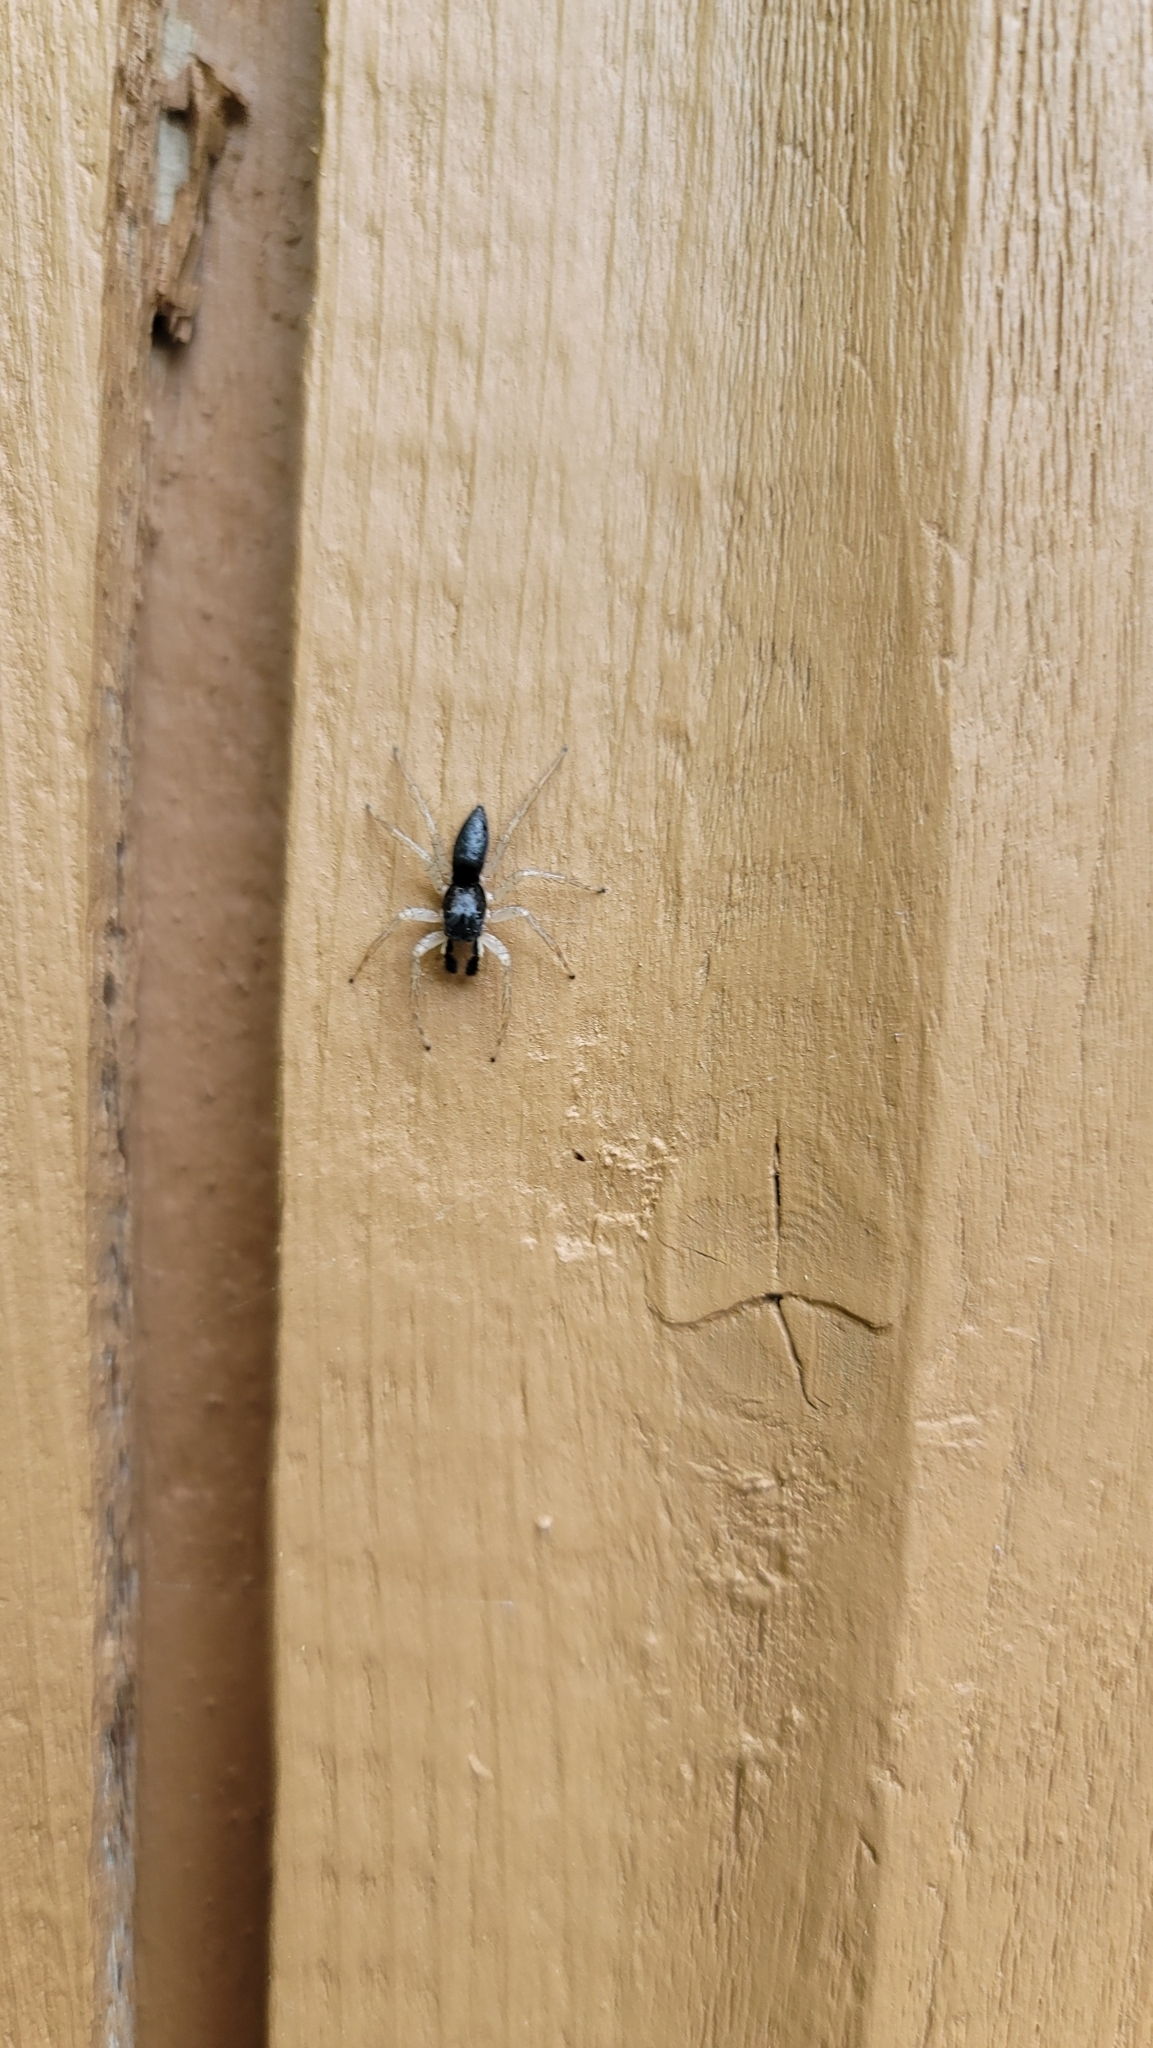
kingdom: Animalia
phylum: Arthropoda
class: Arachnida
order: Araneae
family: Salticidae
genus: Maevia
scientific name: Maevia inclemens
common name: Dimorphic jumper
